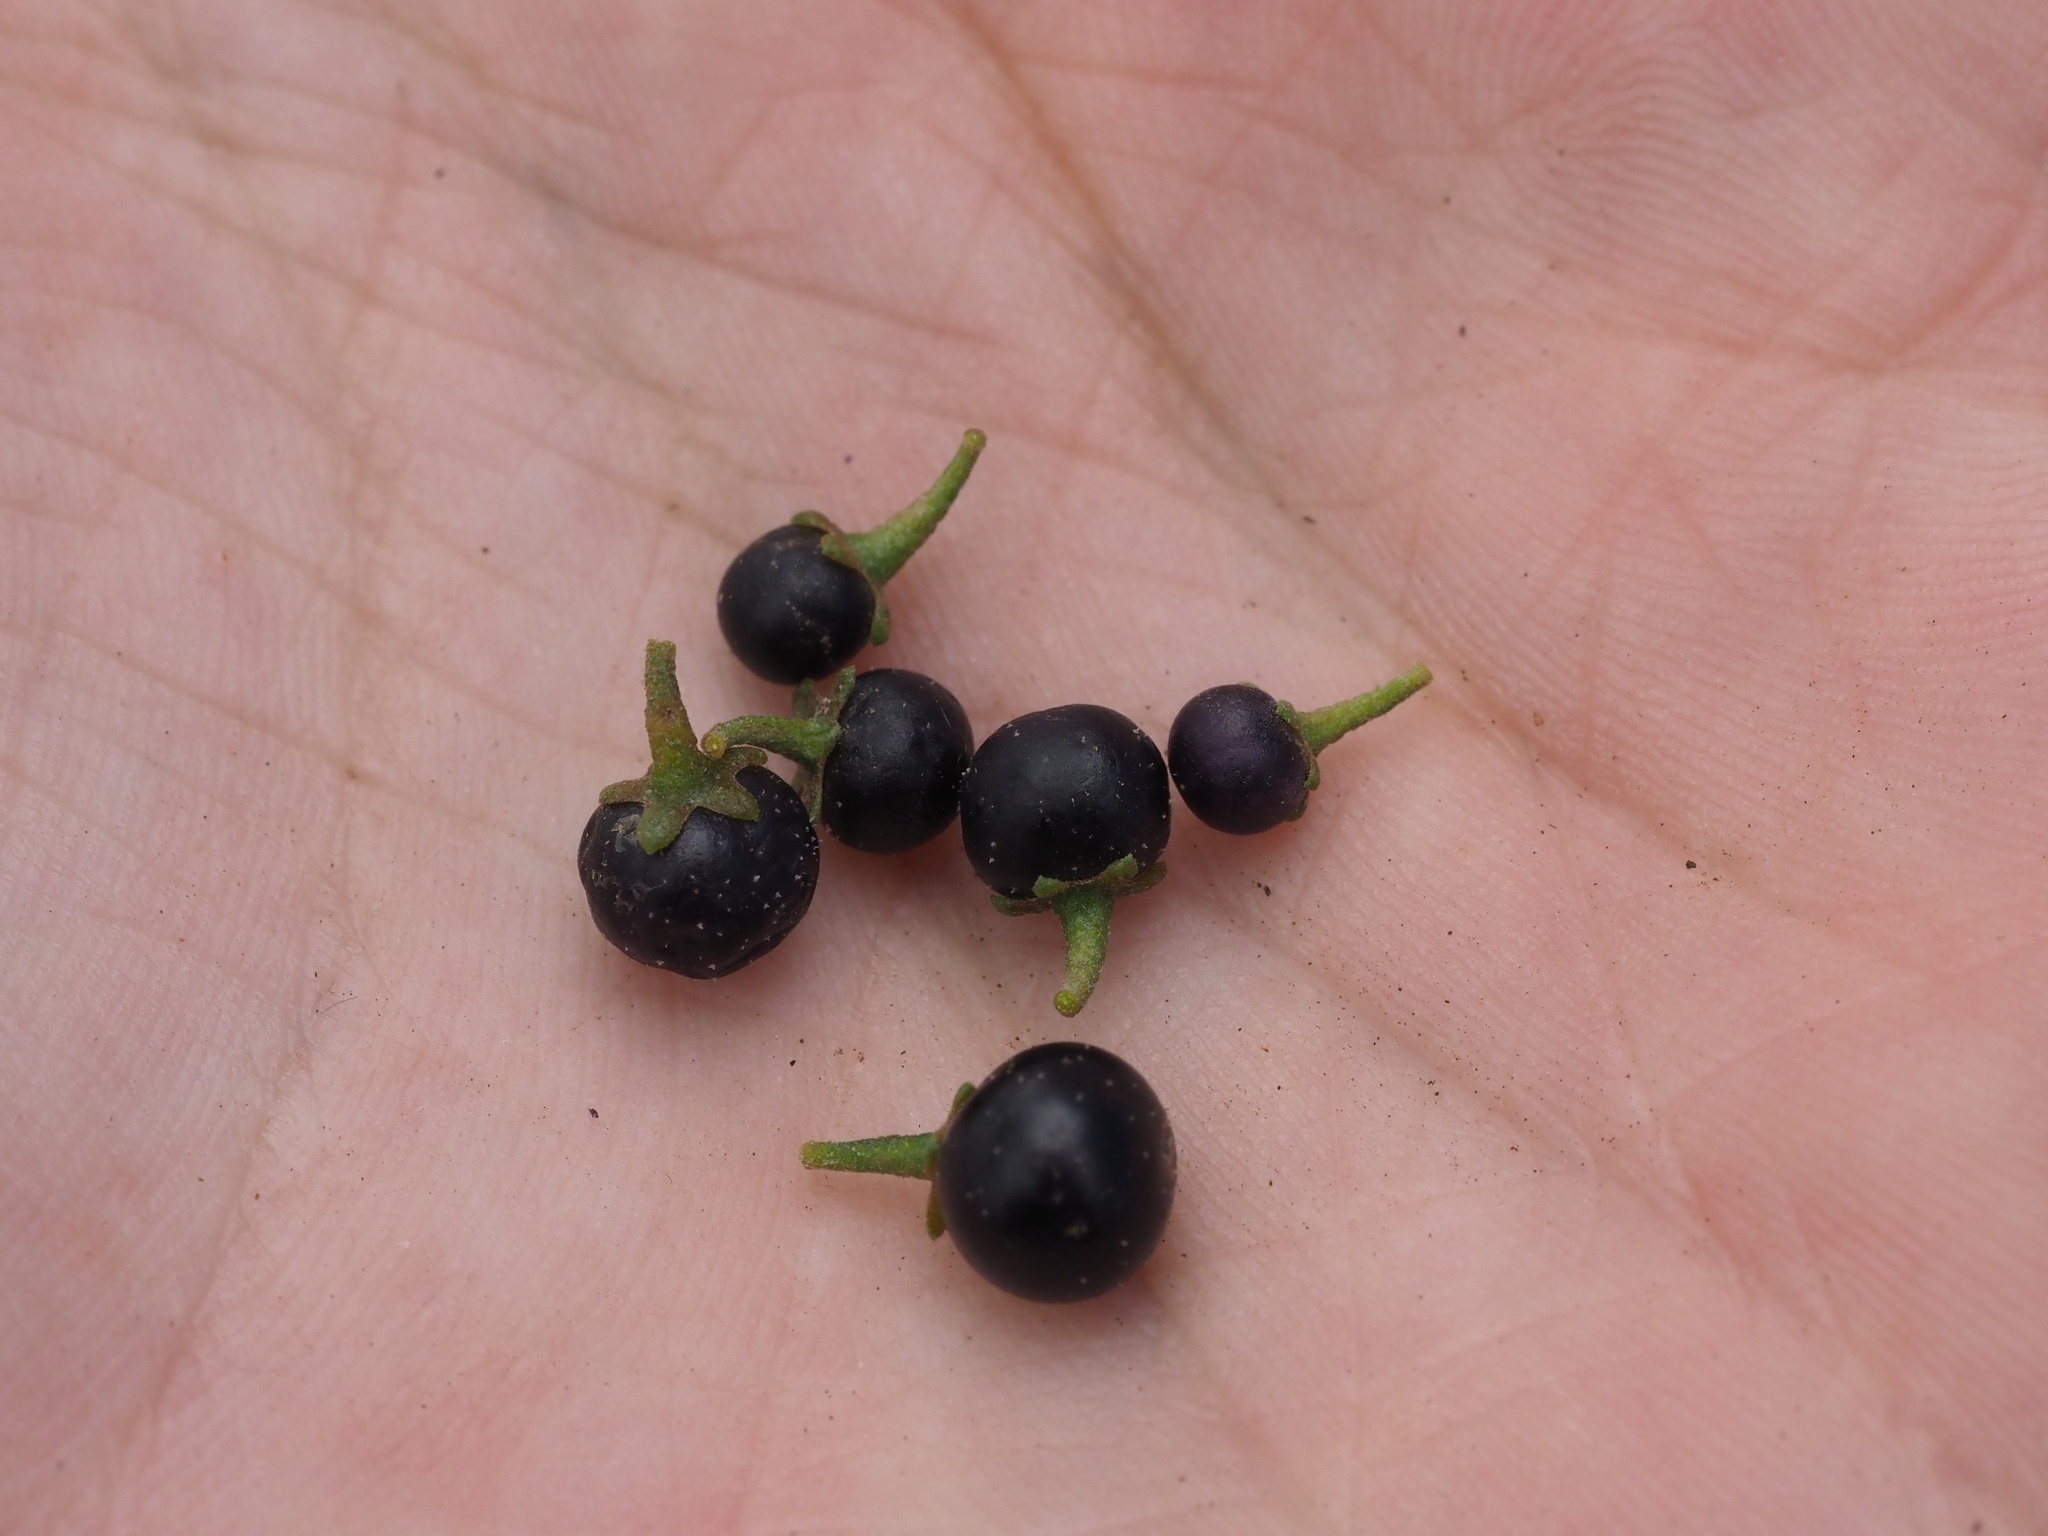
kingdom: Plantae
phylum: Tracheophyta
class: Magnoliopsida
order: Solanales
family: Solanaceae
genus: Solanum
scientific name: Solanum opacum
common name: Green-berry nightshade
